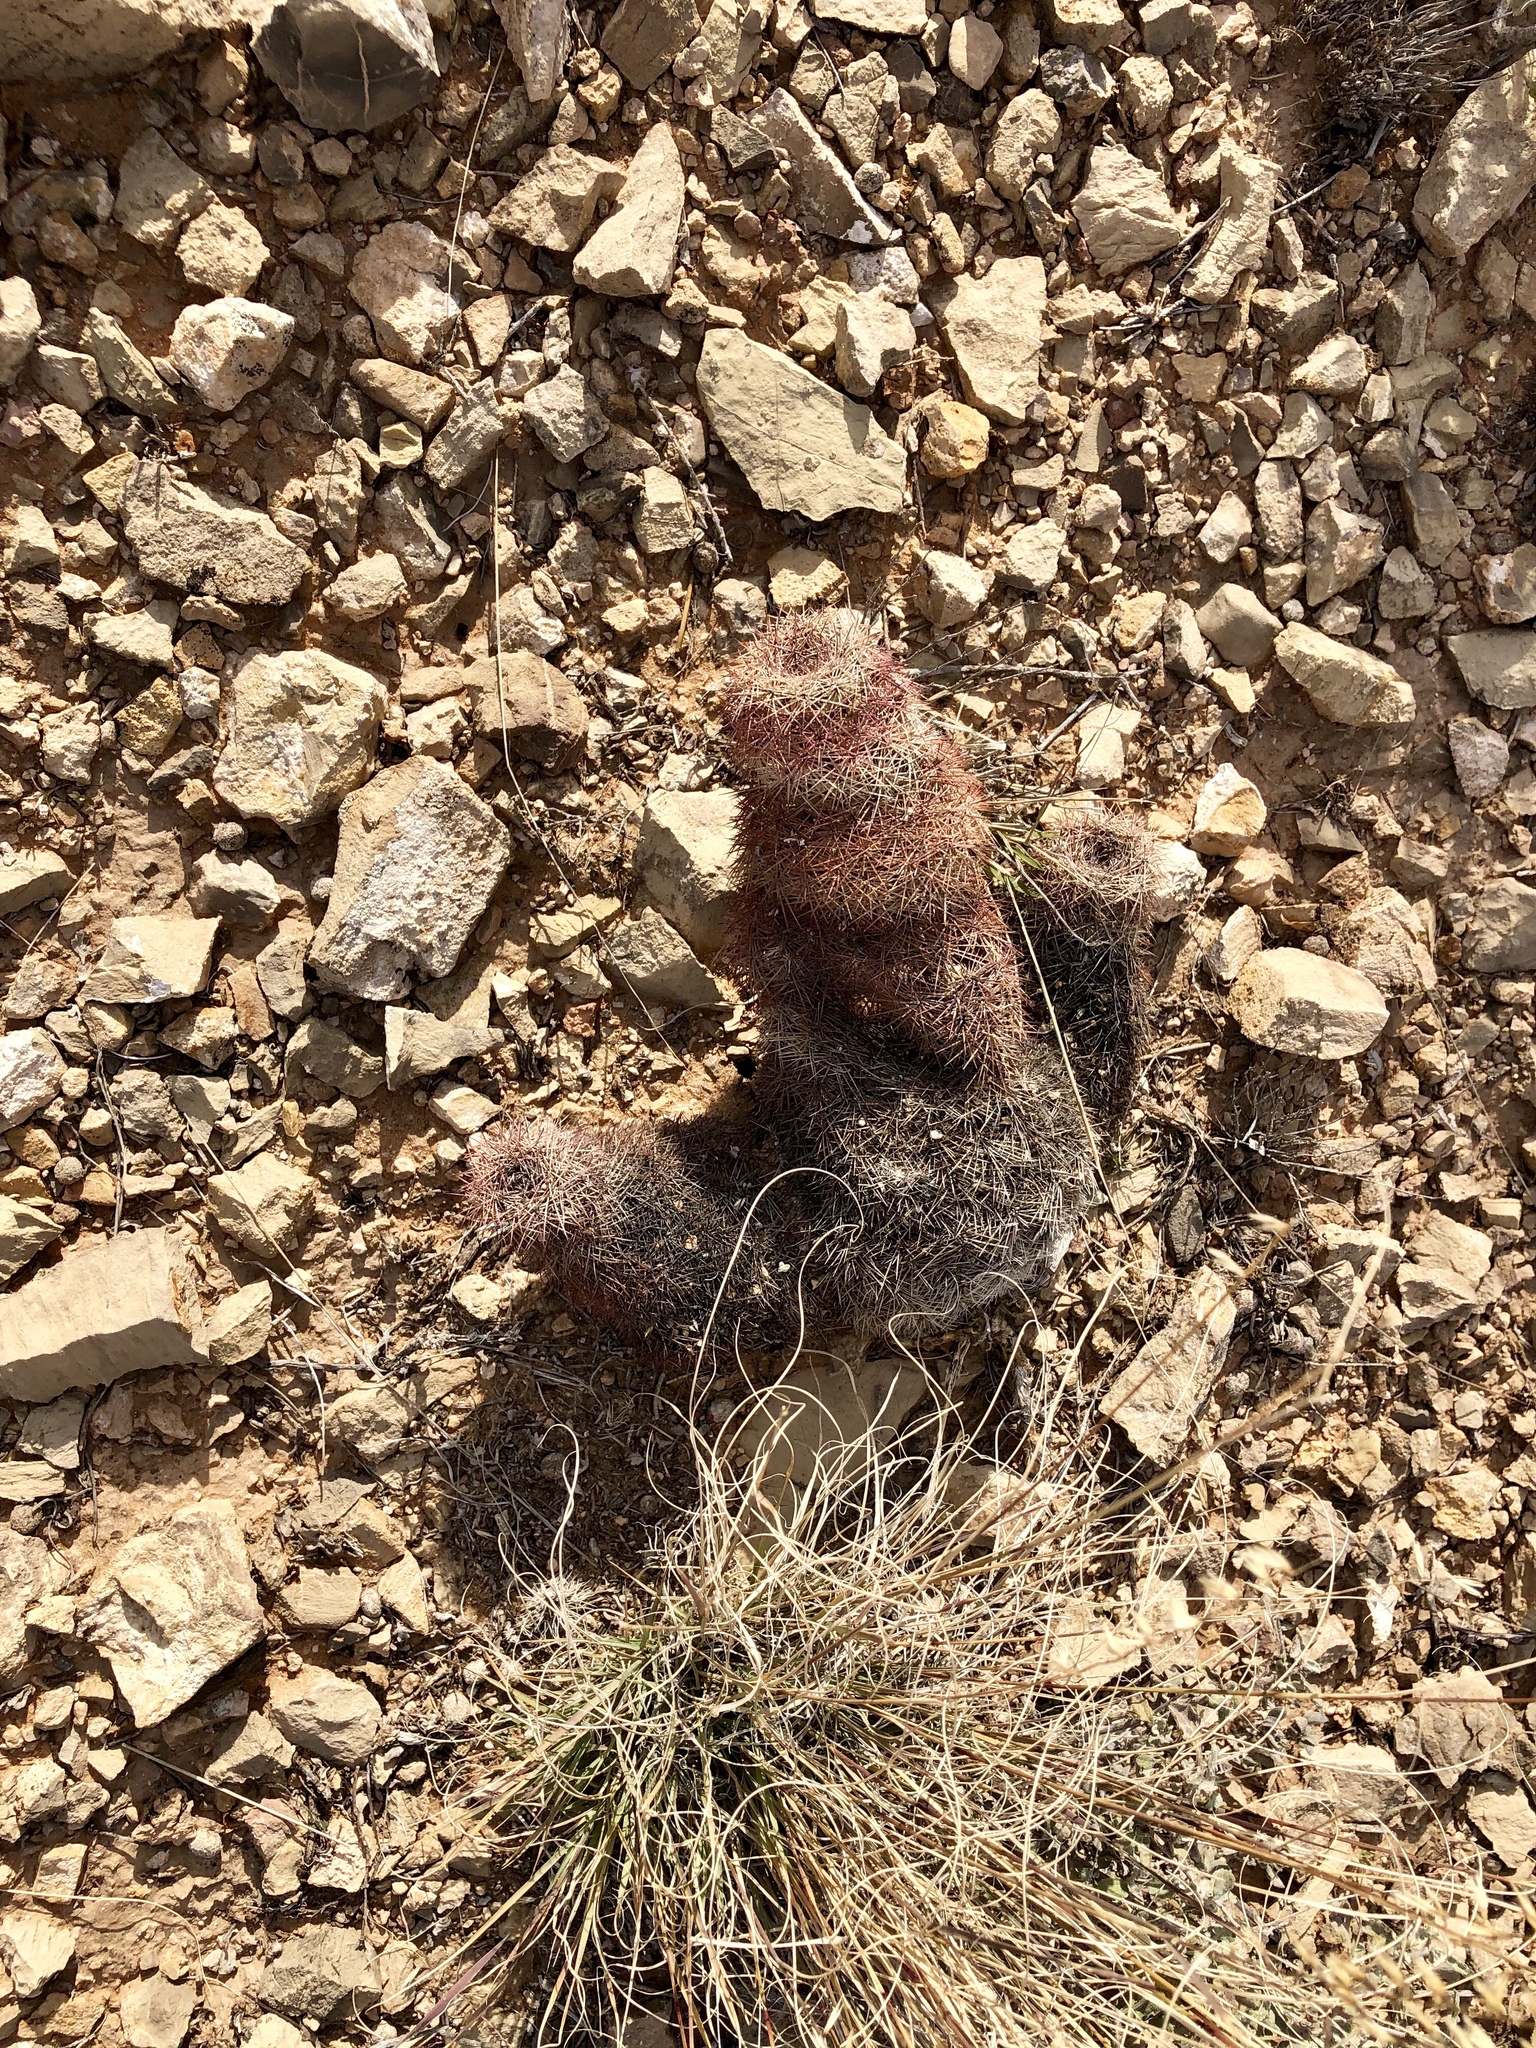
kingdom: Plantae
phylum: Tracheophyta
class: Magnoliopsida
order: Caryophyllales
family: Cactaceae
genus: Echinocereus
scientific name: Echinocereus dasyacanthus
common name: Spiny hedgehog cactus
